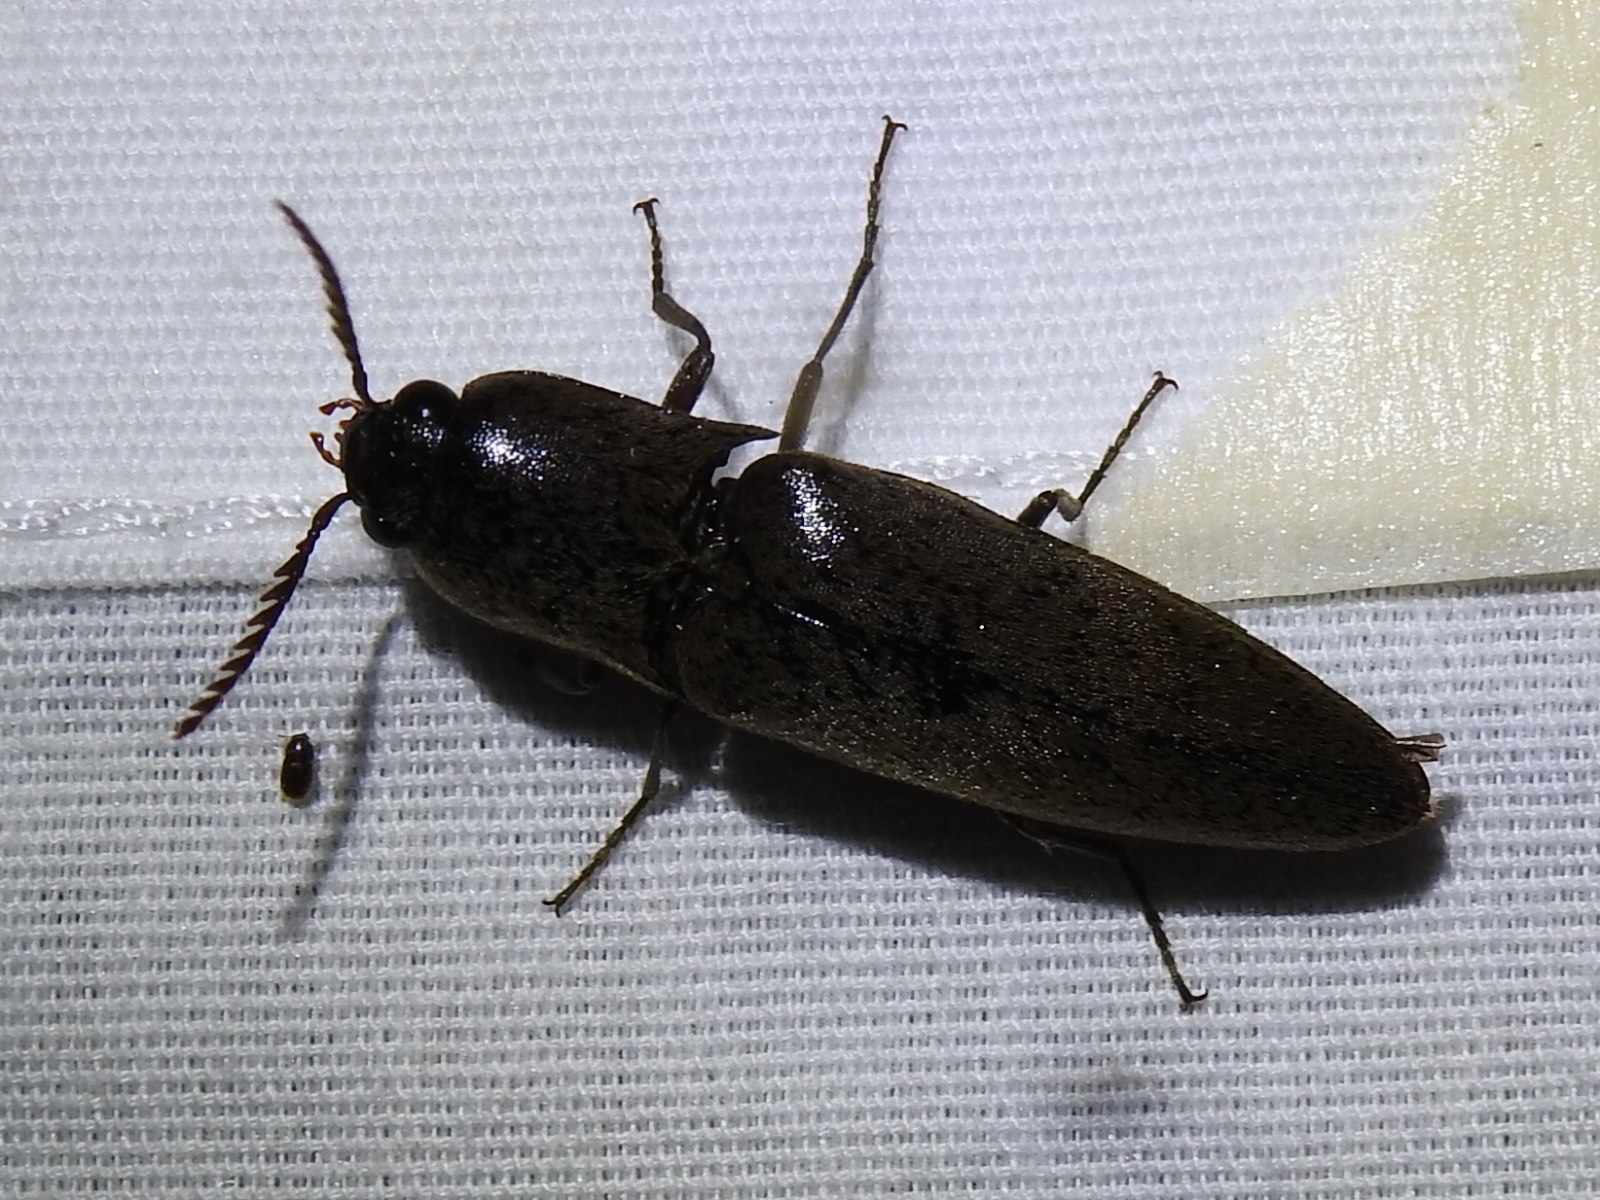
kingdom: Animalia
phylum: Arthropoda
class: Insecta
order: Coleoptera
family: Elateridae
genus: Orthostethus
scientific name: Orthostethus infuscatus
